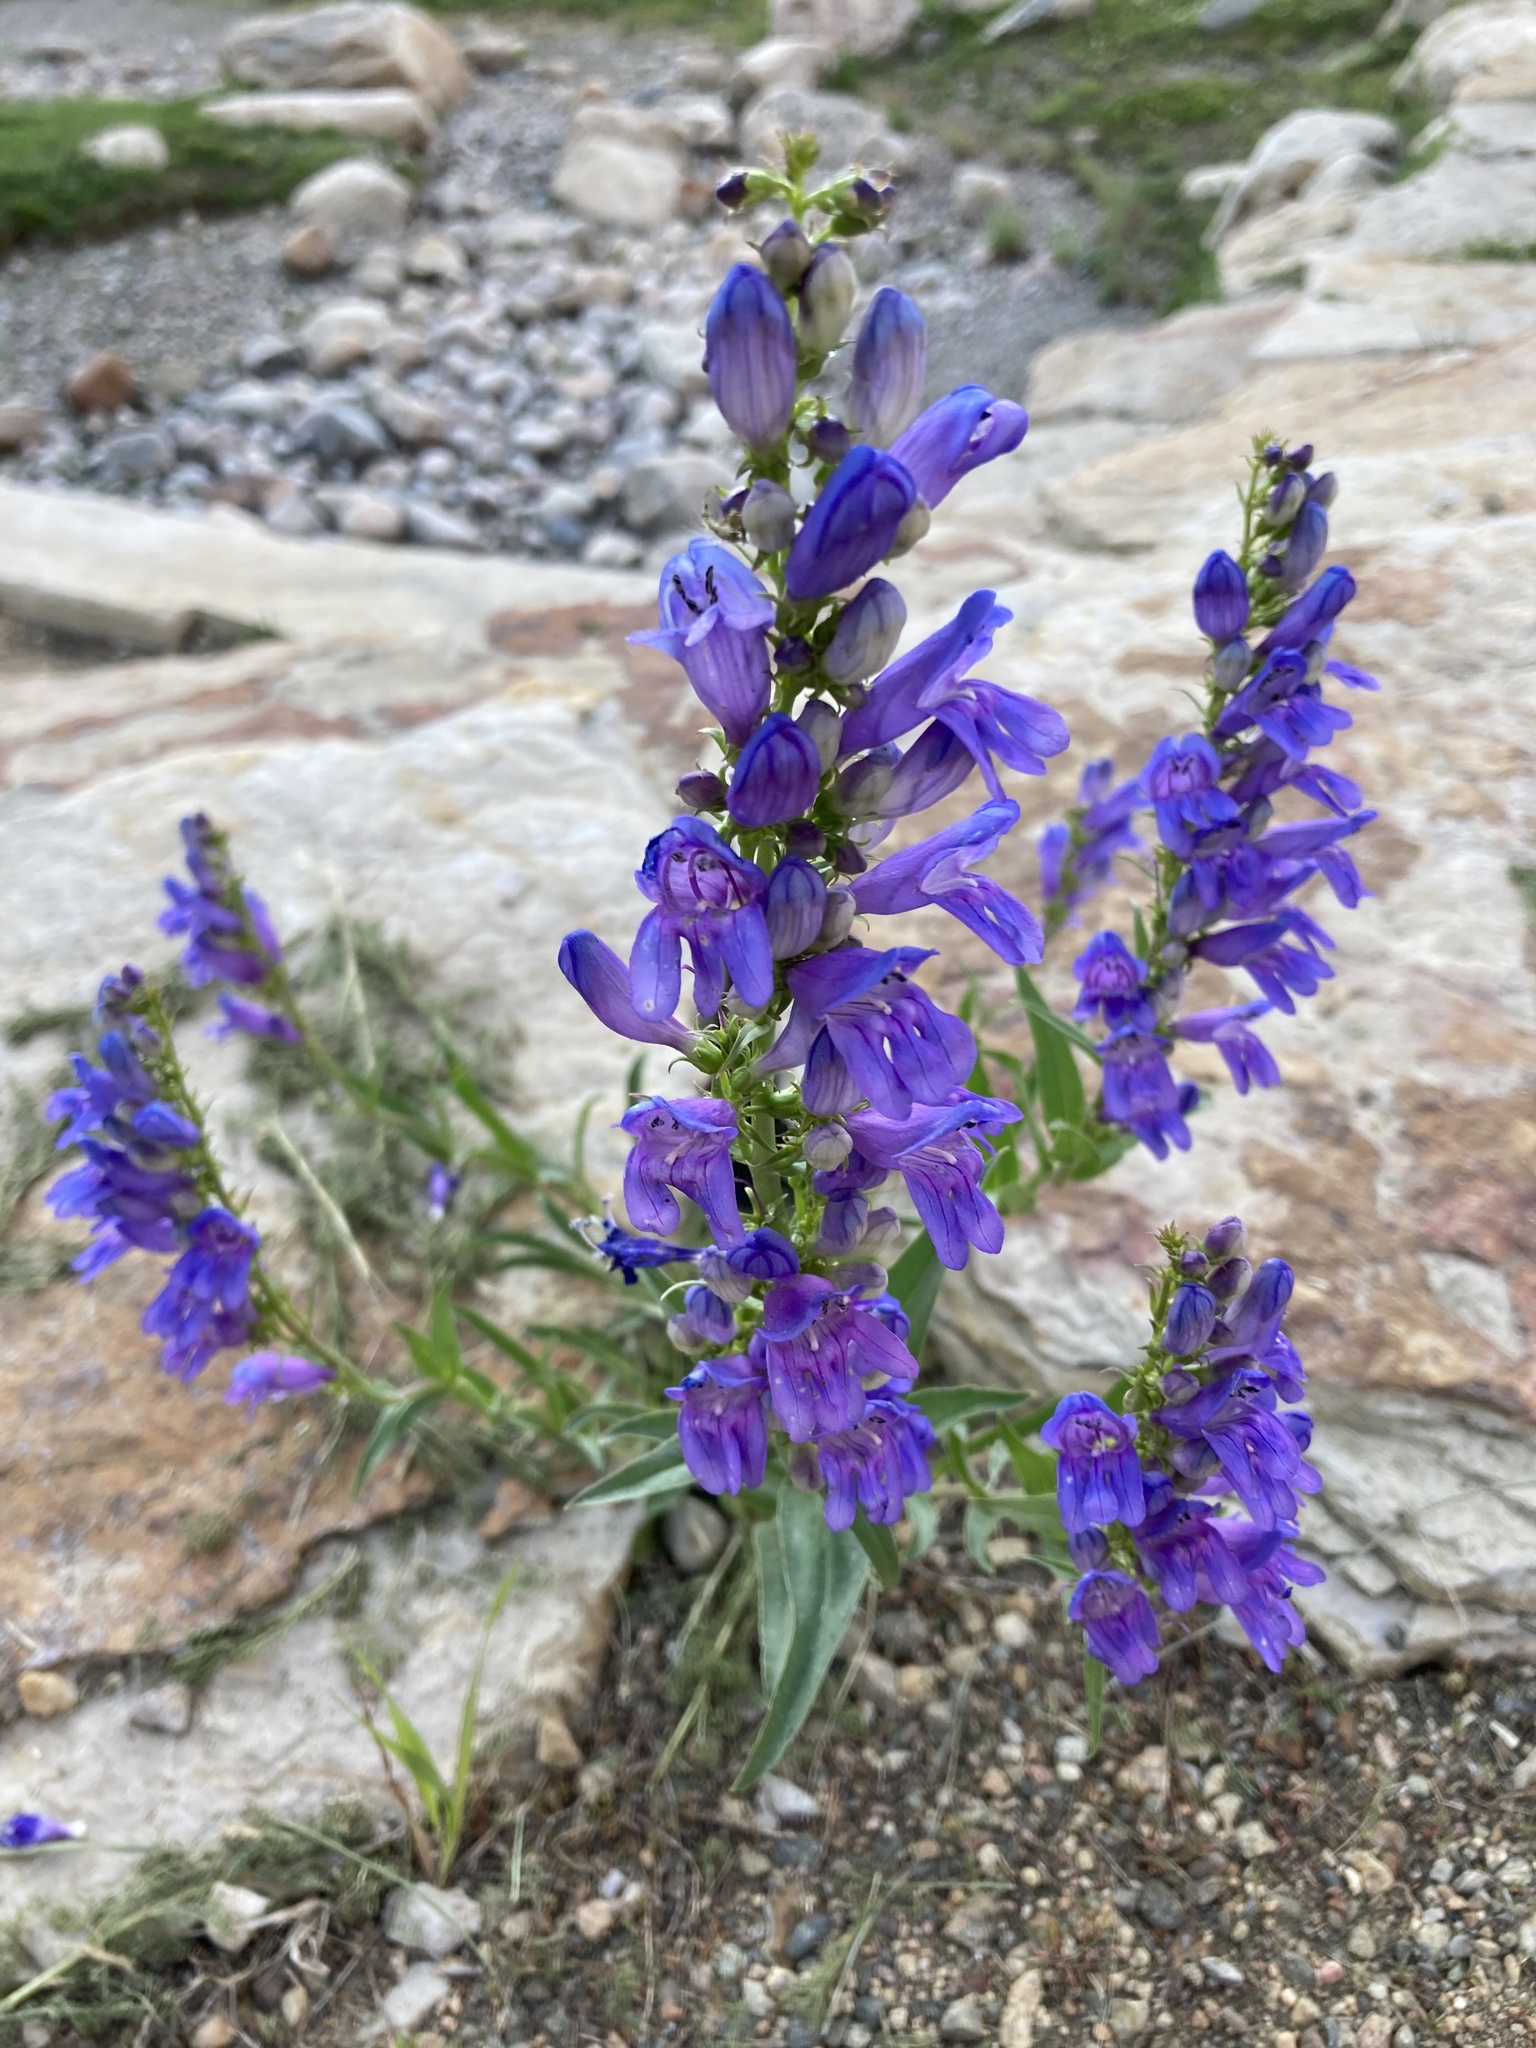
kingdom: Plantae
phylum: Tracheophyta
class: Magnoliopsida
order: Lamiales
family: Plantaginaceae
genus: Penstemon
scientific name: Penstemon strictus
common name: Rocky mountain penstemon
